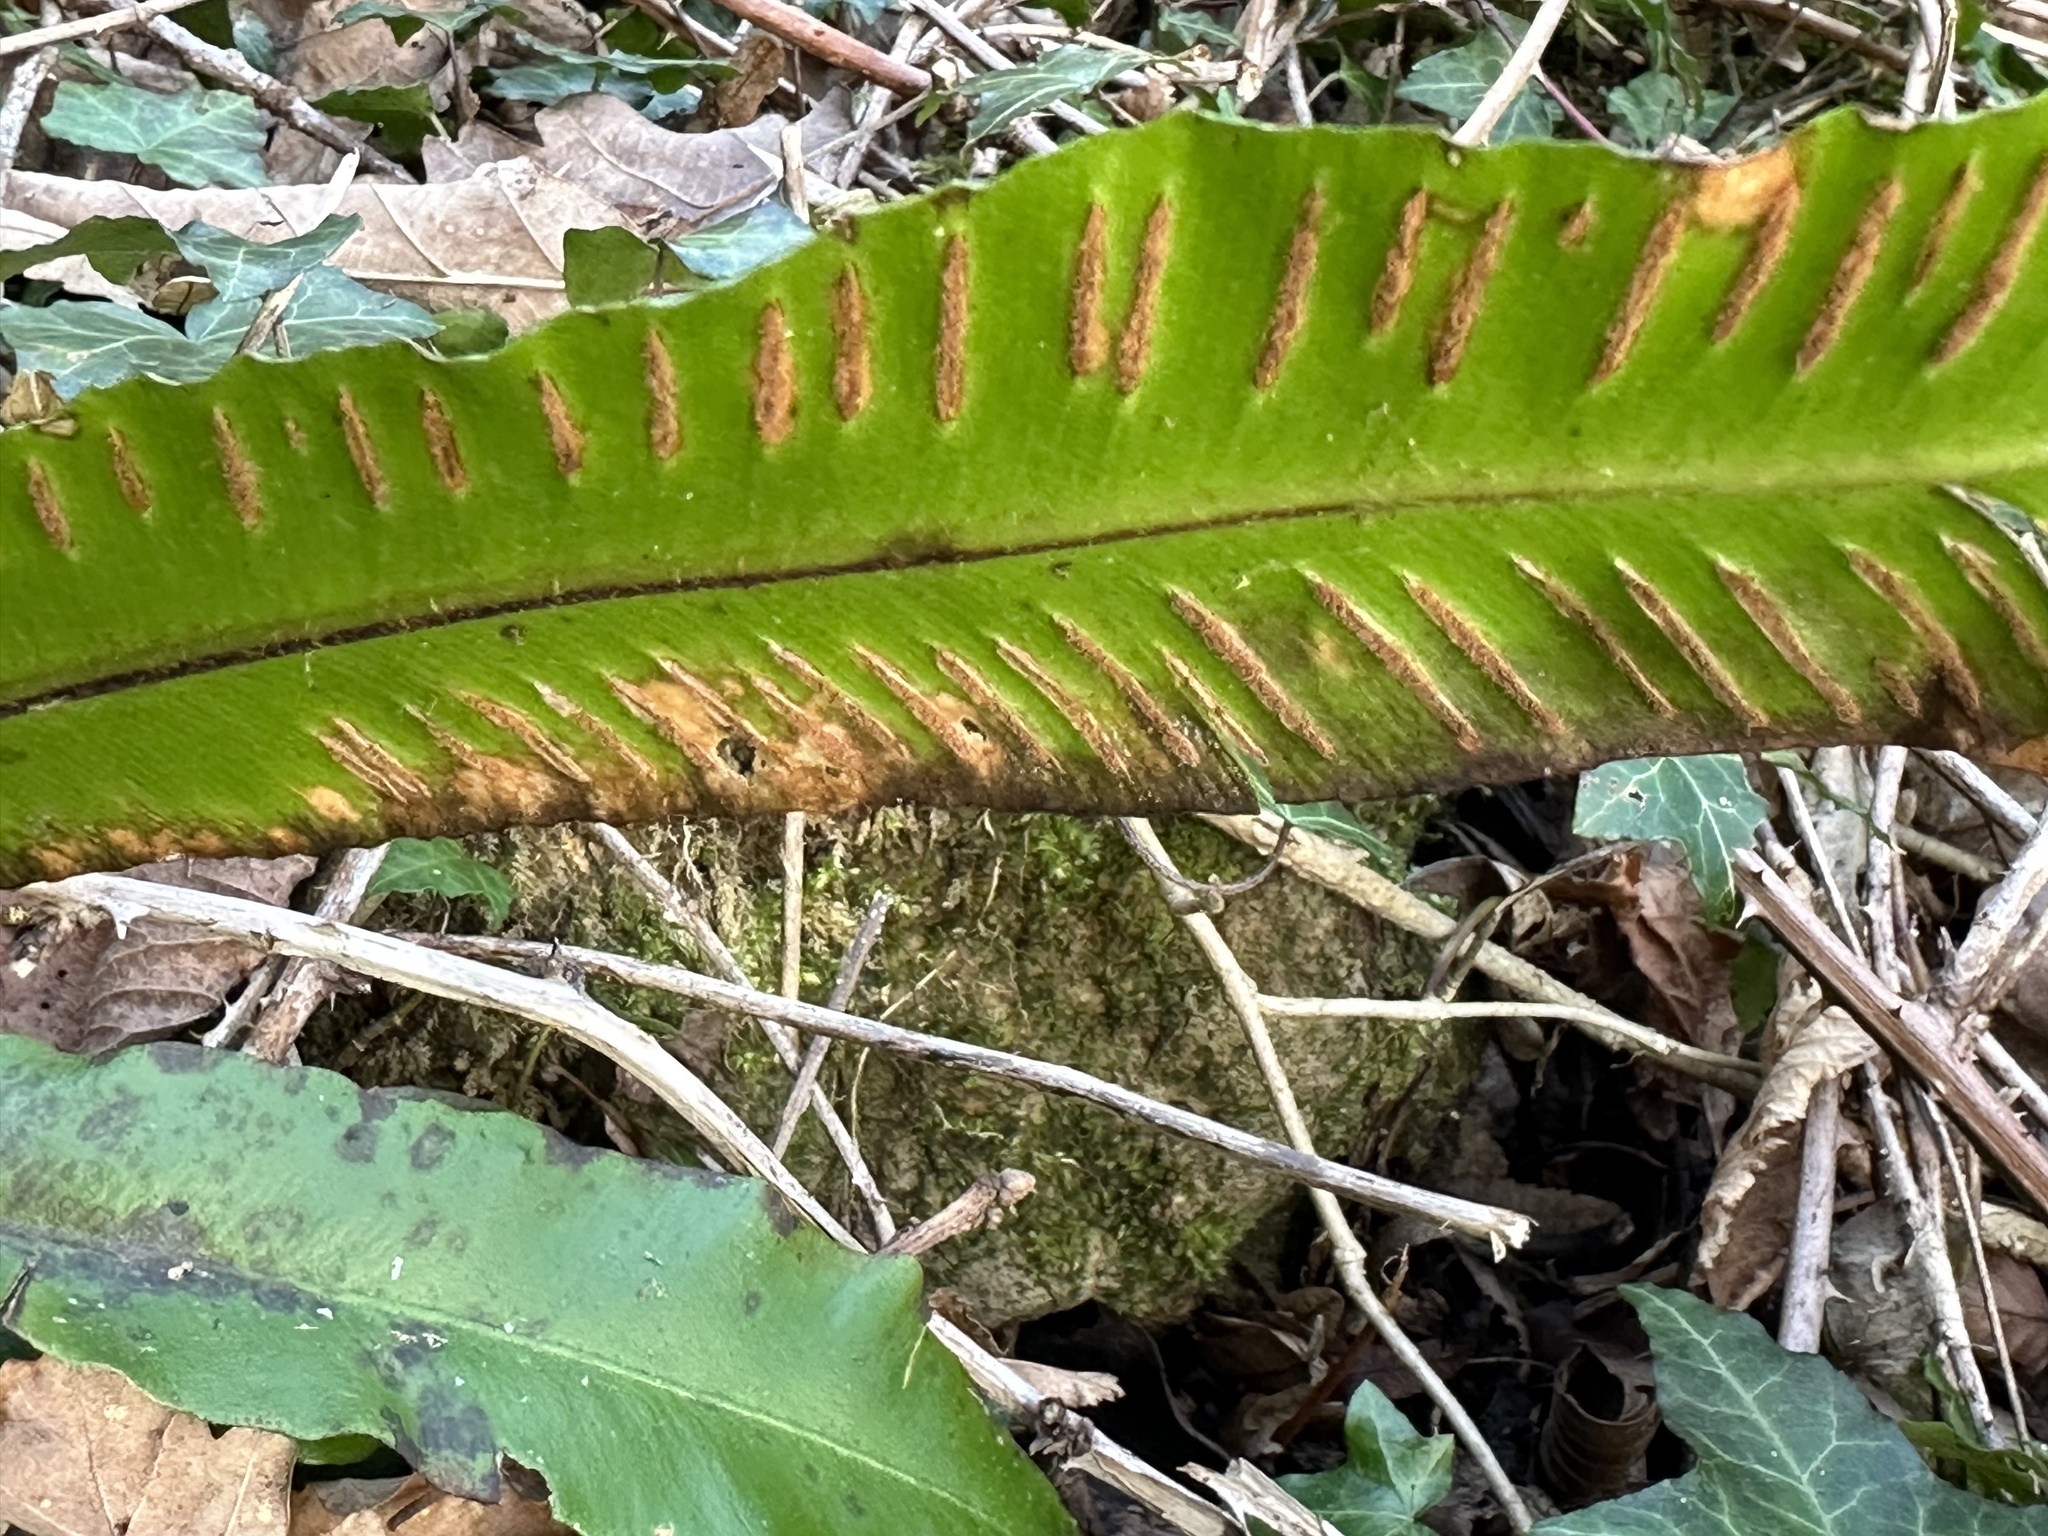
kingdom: Plantae
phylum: Tracheophyta
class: Polypodiopsida
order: Polypodiales
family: Aspleniaceae
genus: Asplenium
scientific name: Asplenium scolopendrium
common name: Hart's-tongue fern
